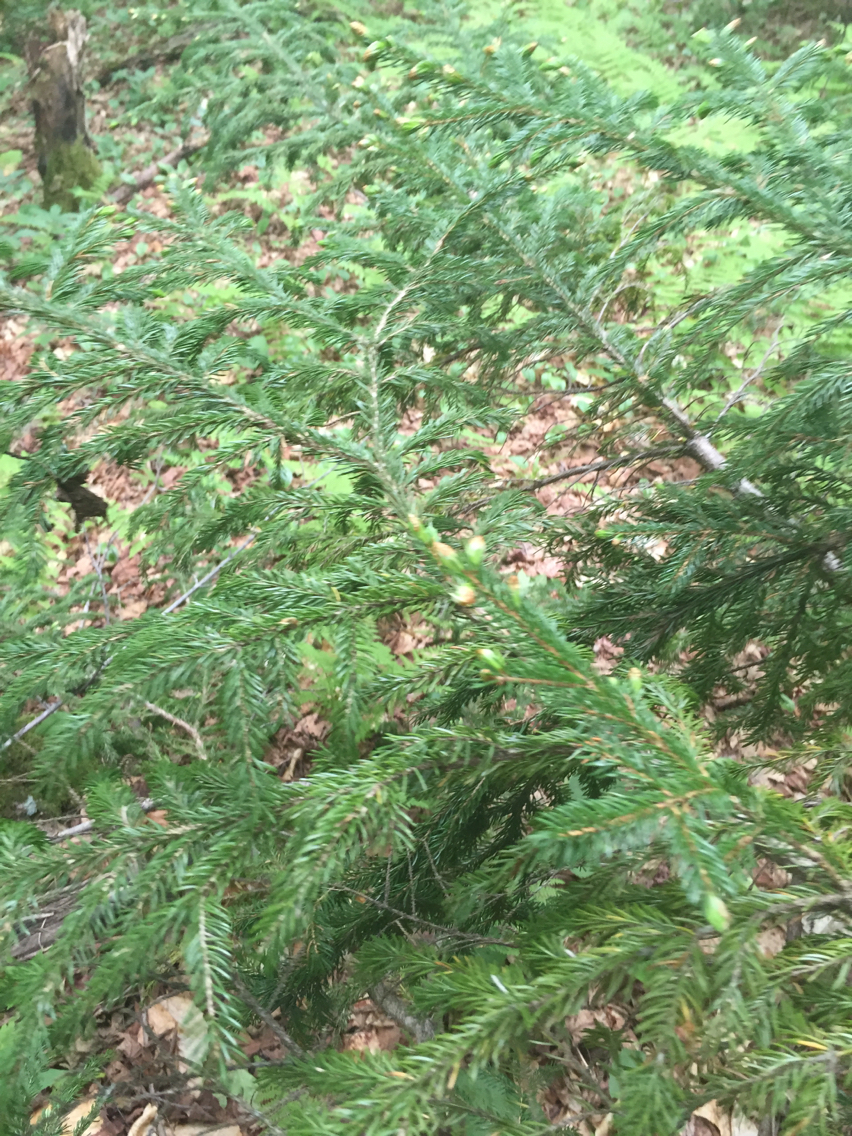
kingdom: Plantae
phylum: Tracheophyta
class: Pinopsida
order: Pinales
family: Pinaceae
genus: Picea
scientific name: Picea rubens
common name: Red spruce
